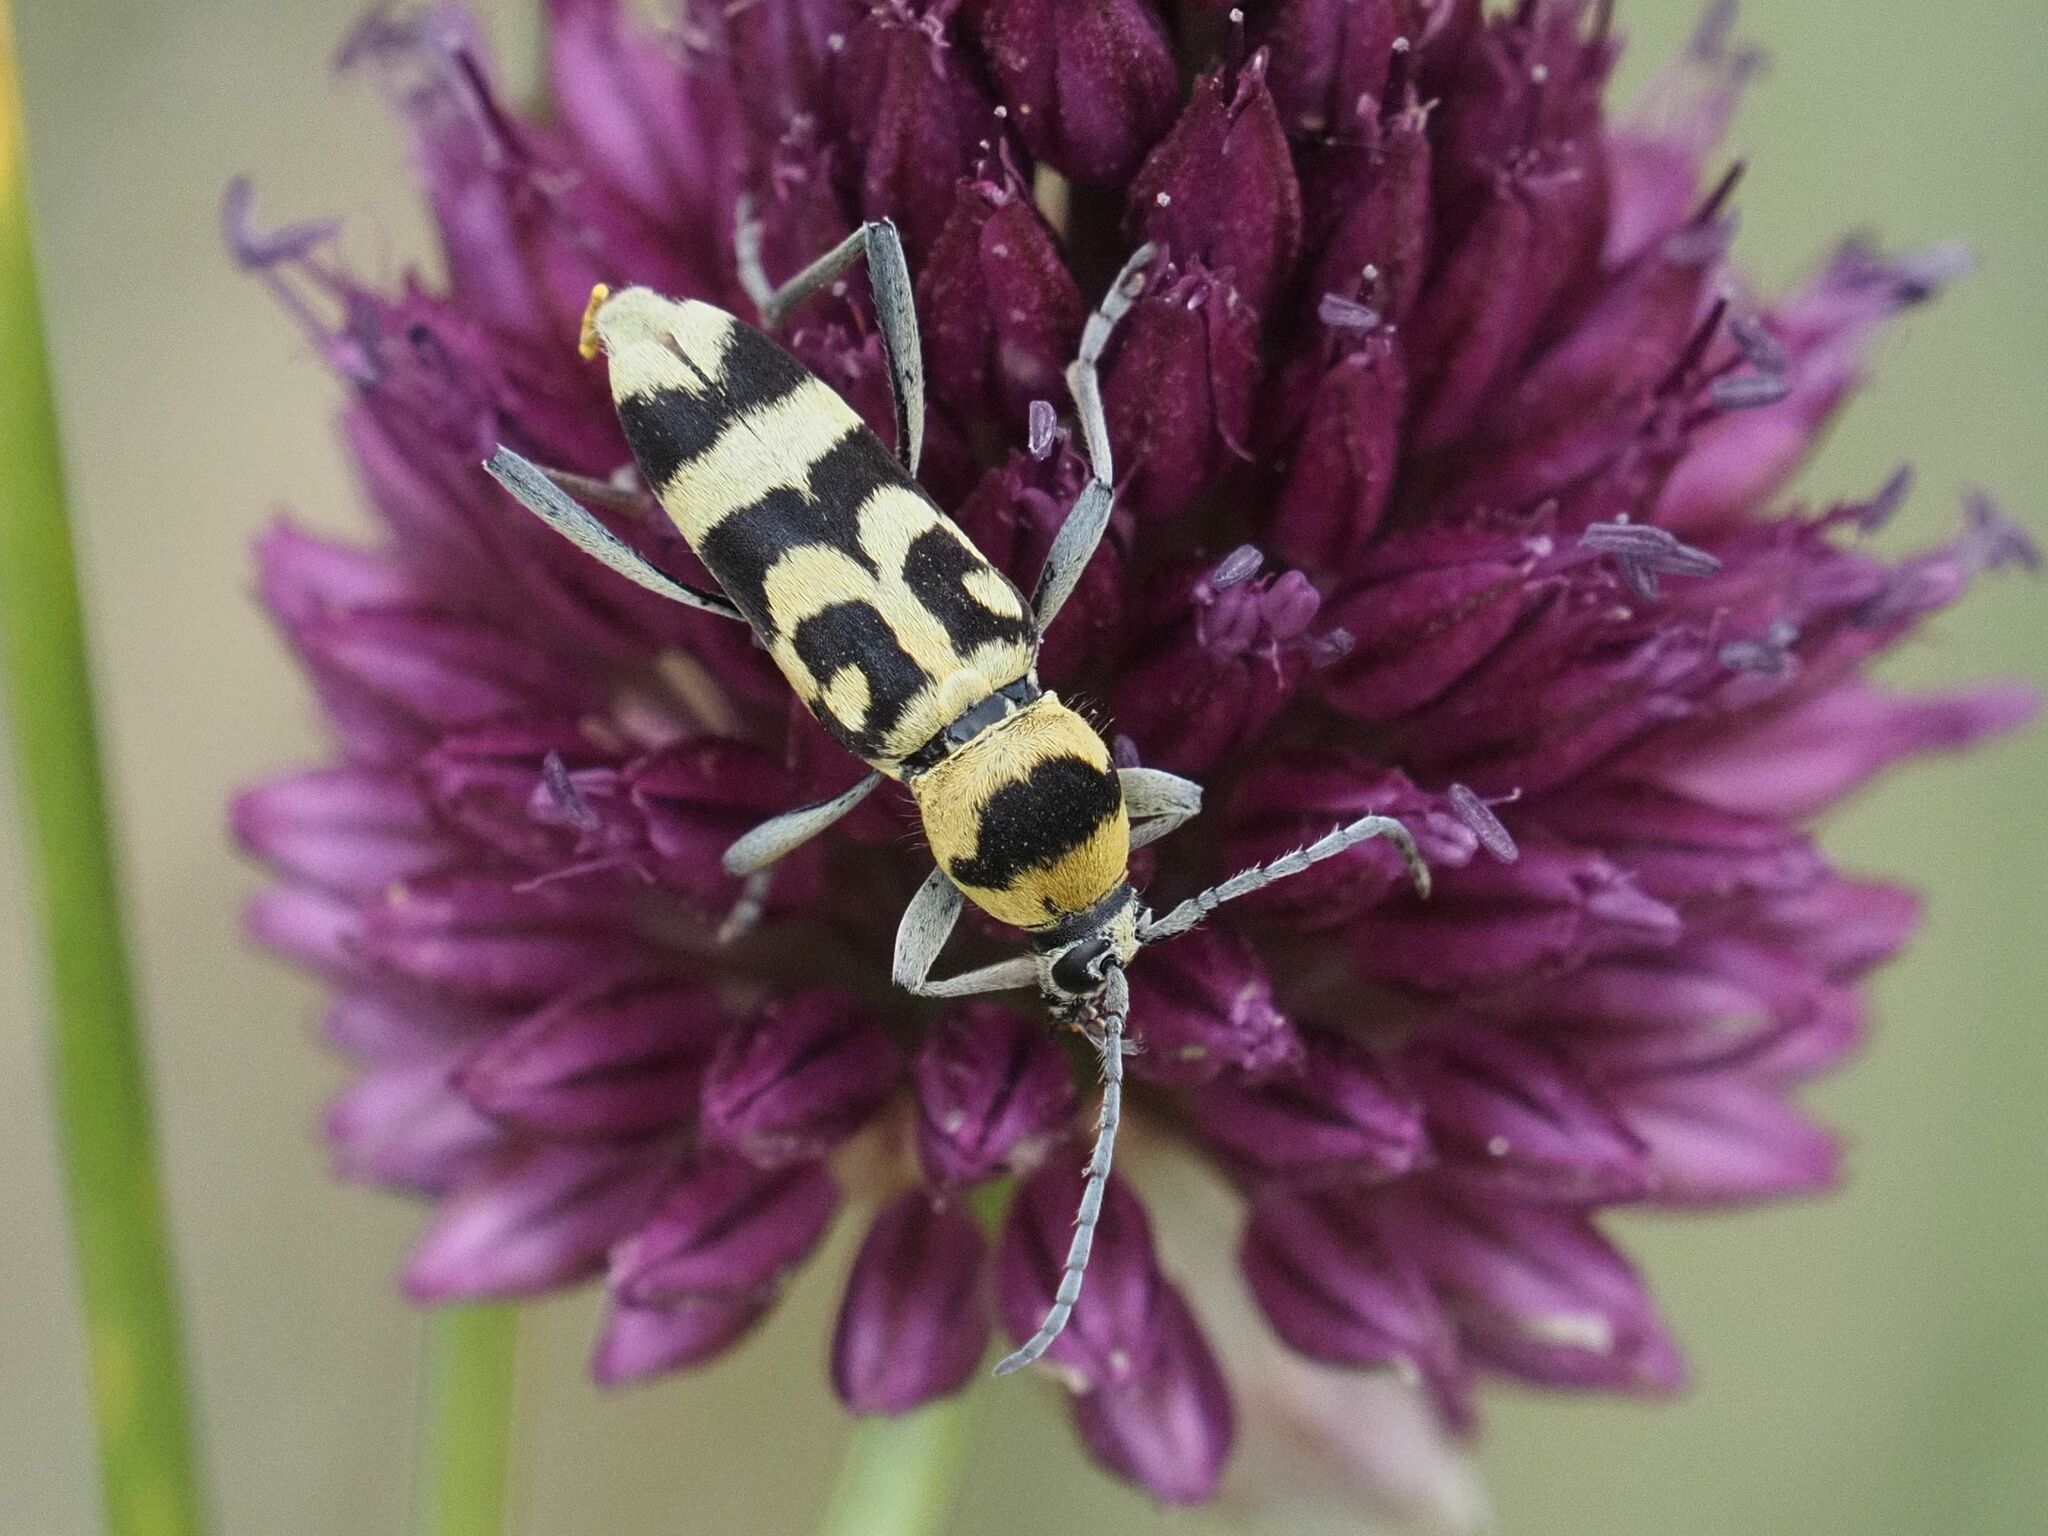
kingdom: Animalia
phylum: Arthropoda
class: Insecta
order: Coleoptera
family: Cerambycidae
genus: Chlorophorus
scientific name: Chlorophorus varius
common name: Grape wood borer
